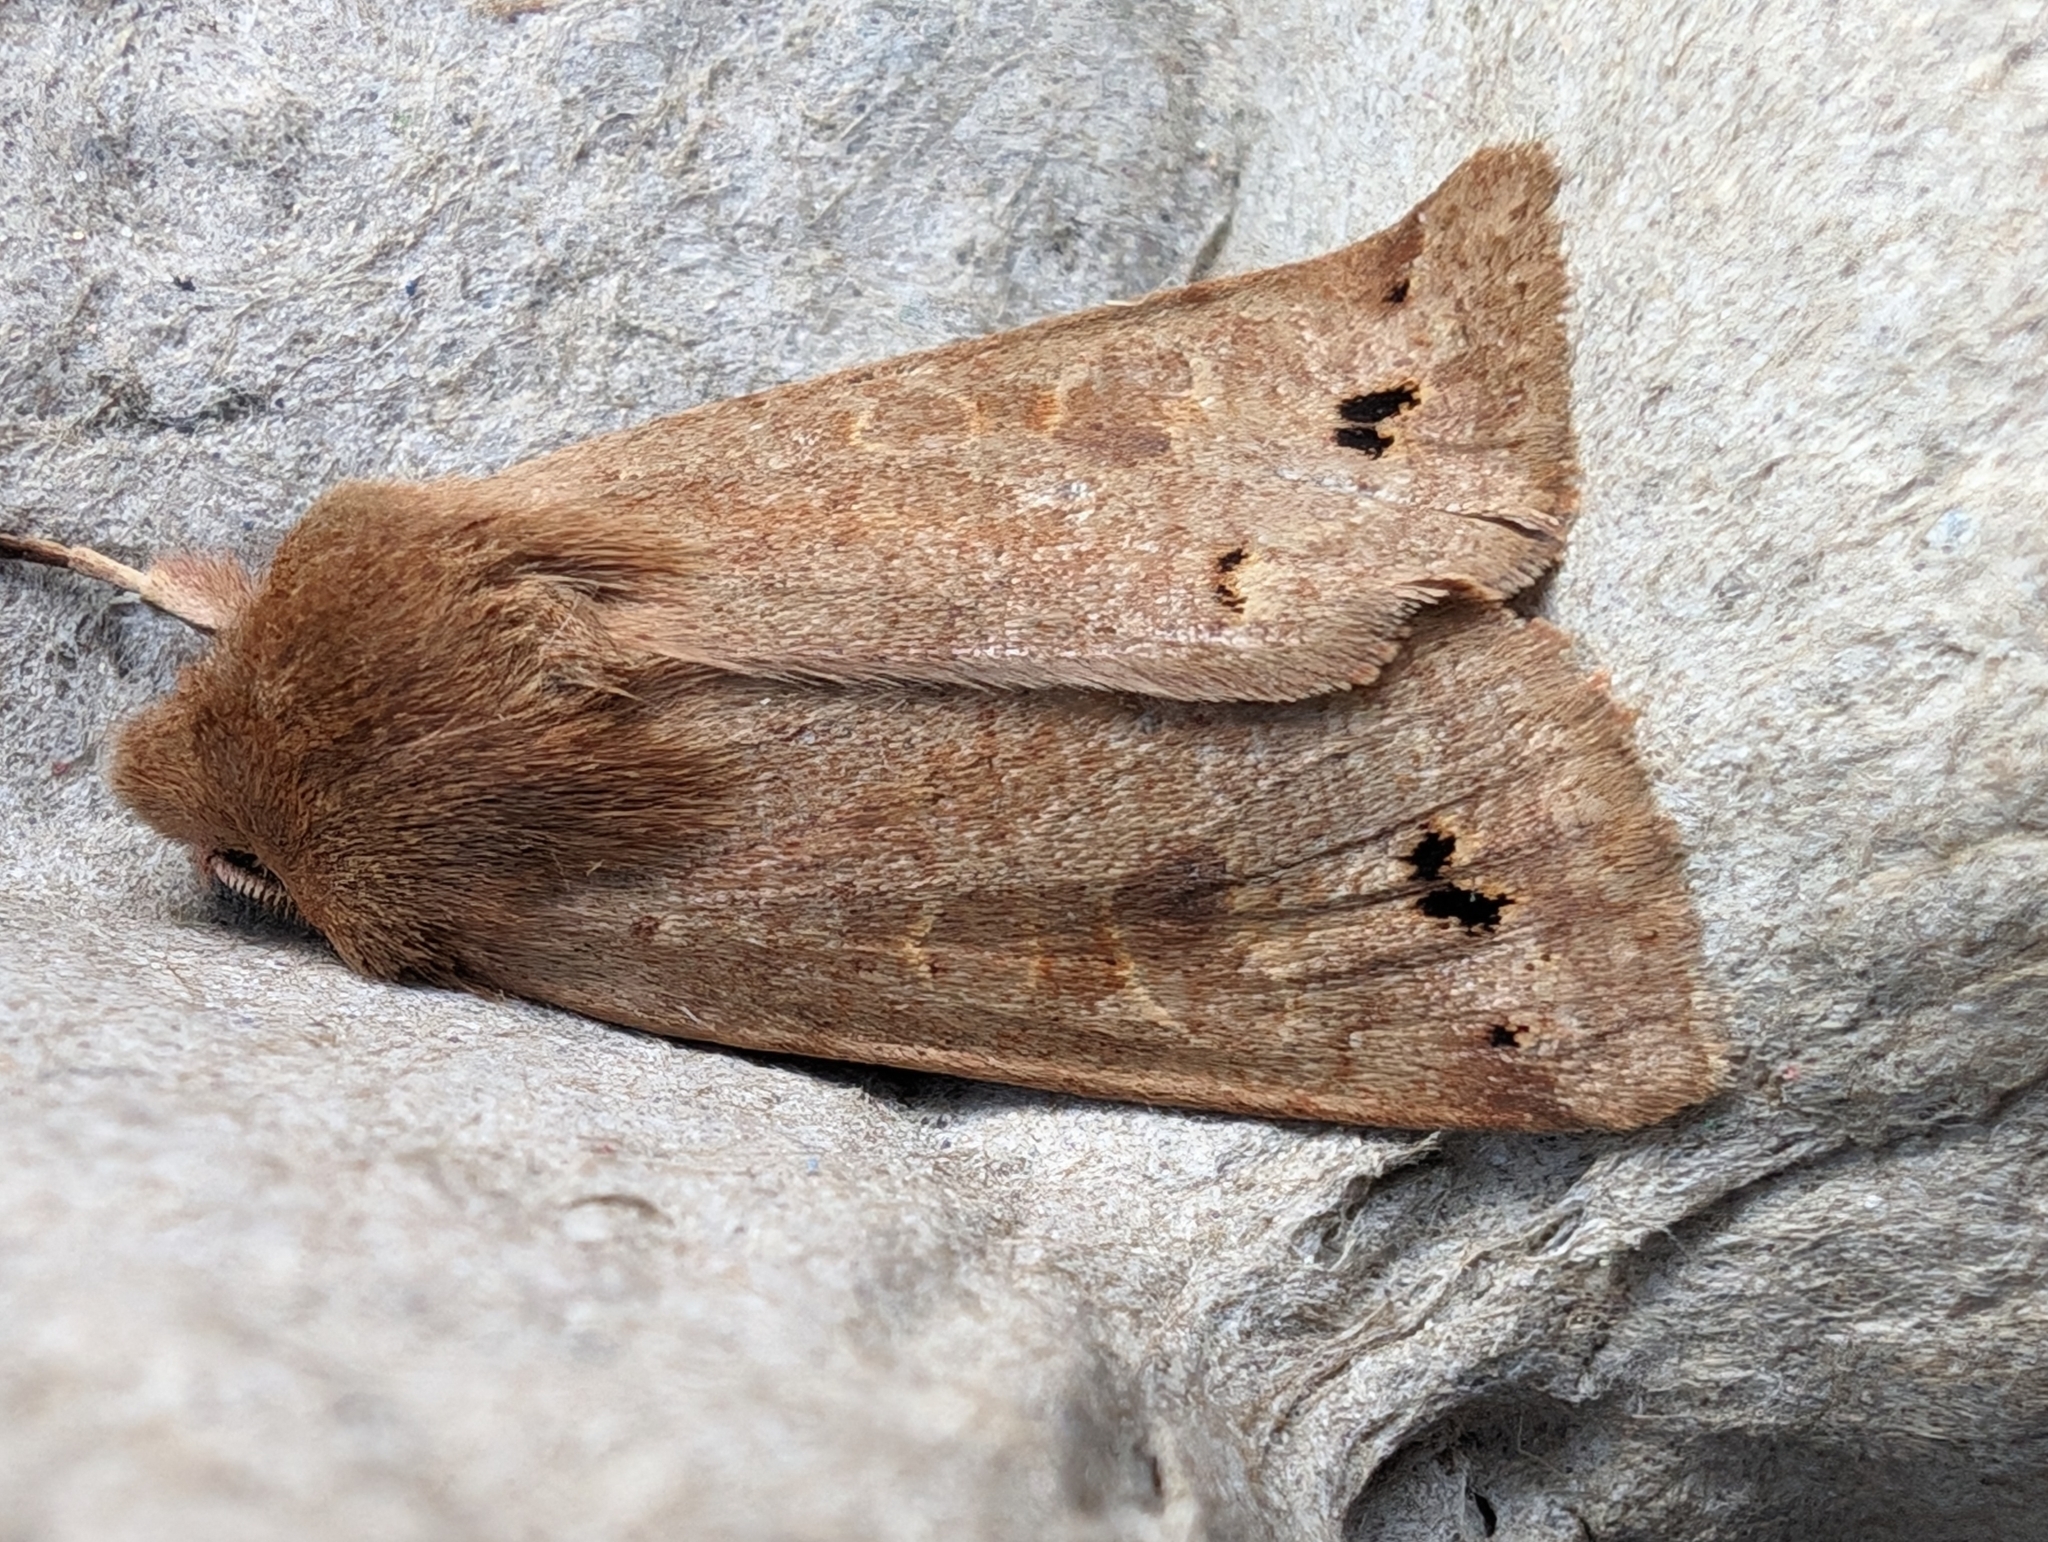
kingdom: Animalia
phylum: Arthropoda
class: Insecta
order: Lepidoptera
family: Noctuidae
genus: Anorthoa
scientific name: Anorthoa munda
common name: Twin-spotted quaker
